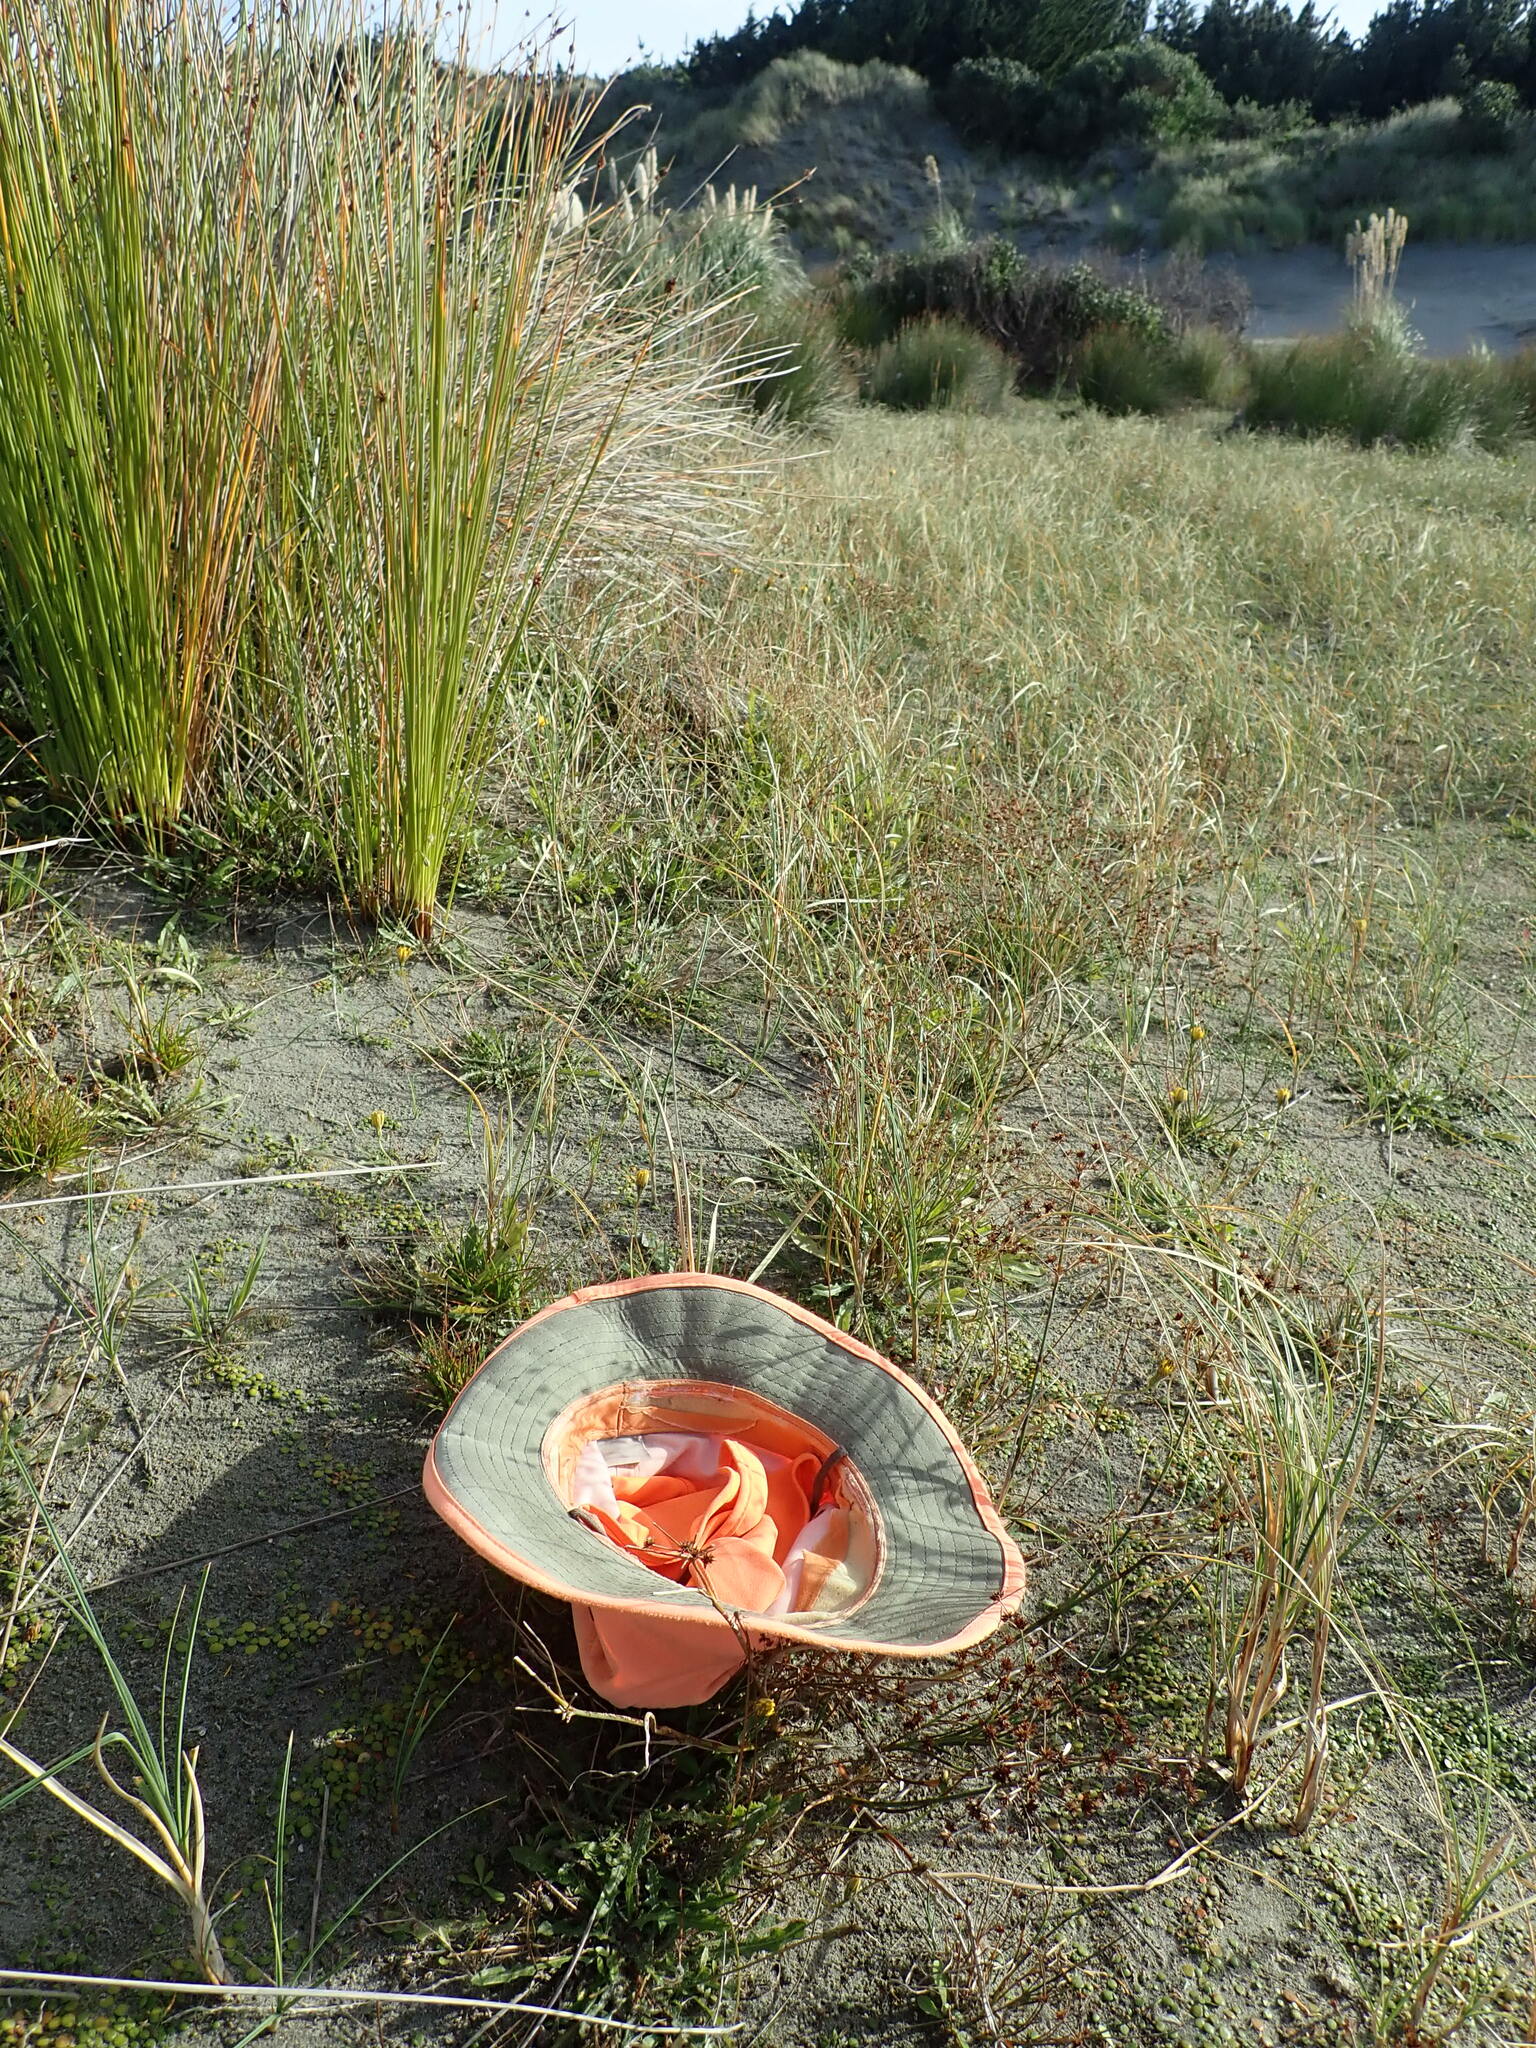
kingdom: Plantae
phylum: Tracheophyta
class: Liliopsida
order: Poales
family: Juncaceae
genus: Juncus
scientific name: Juncus caespiticius
